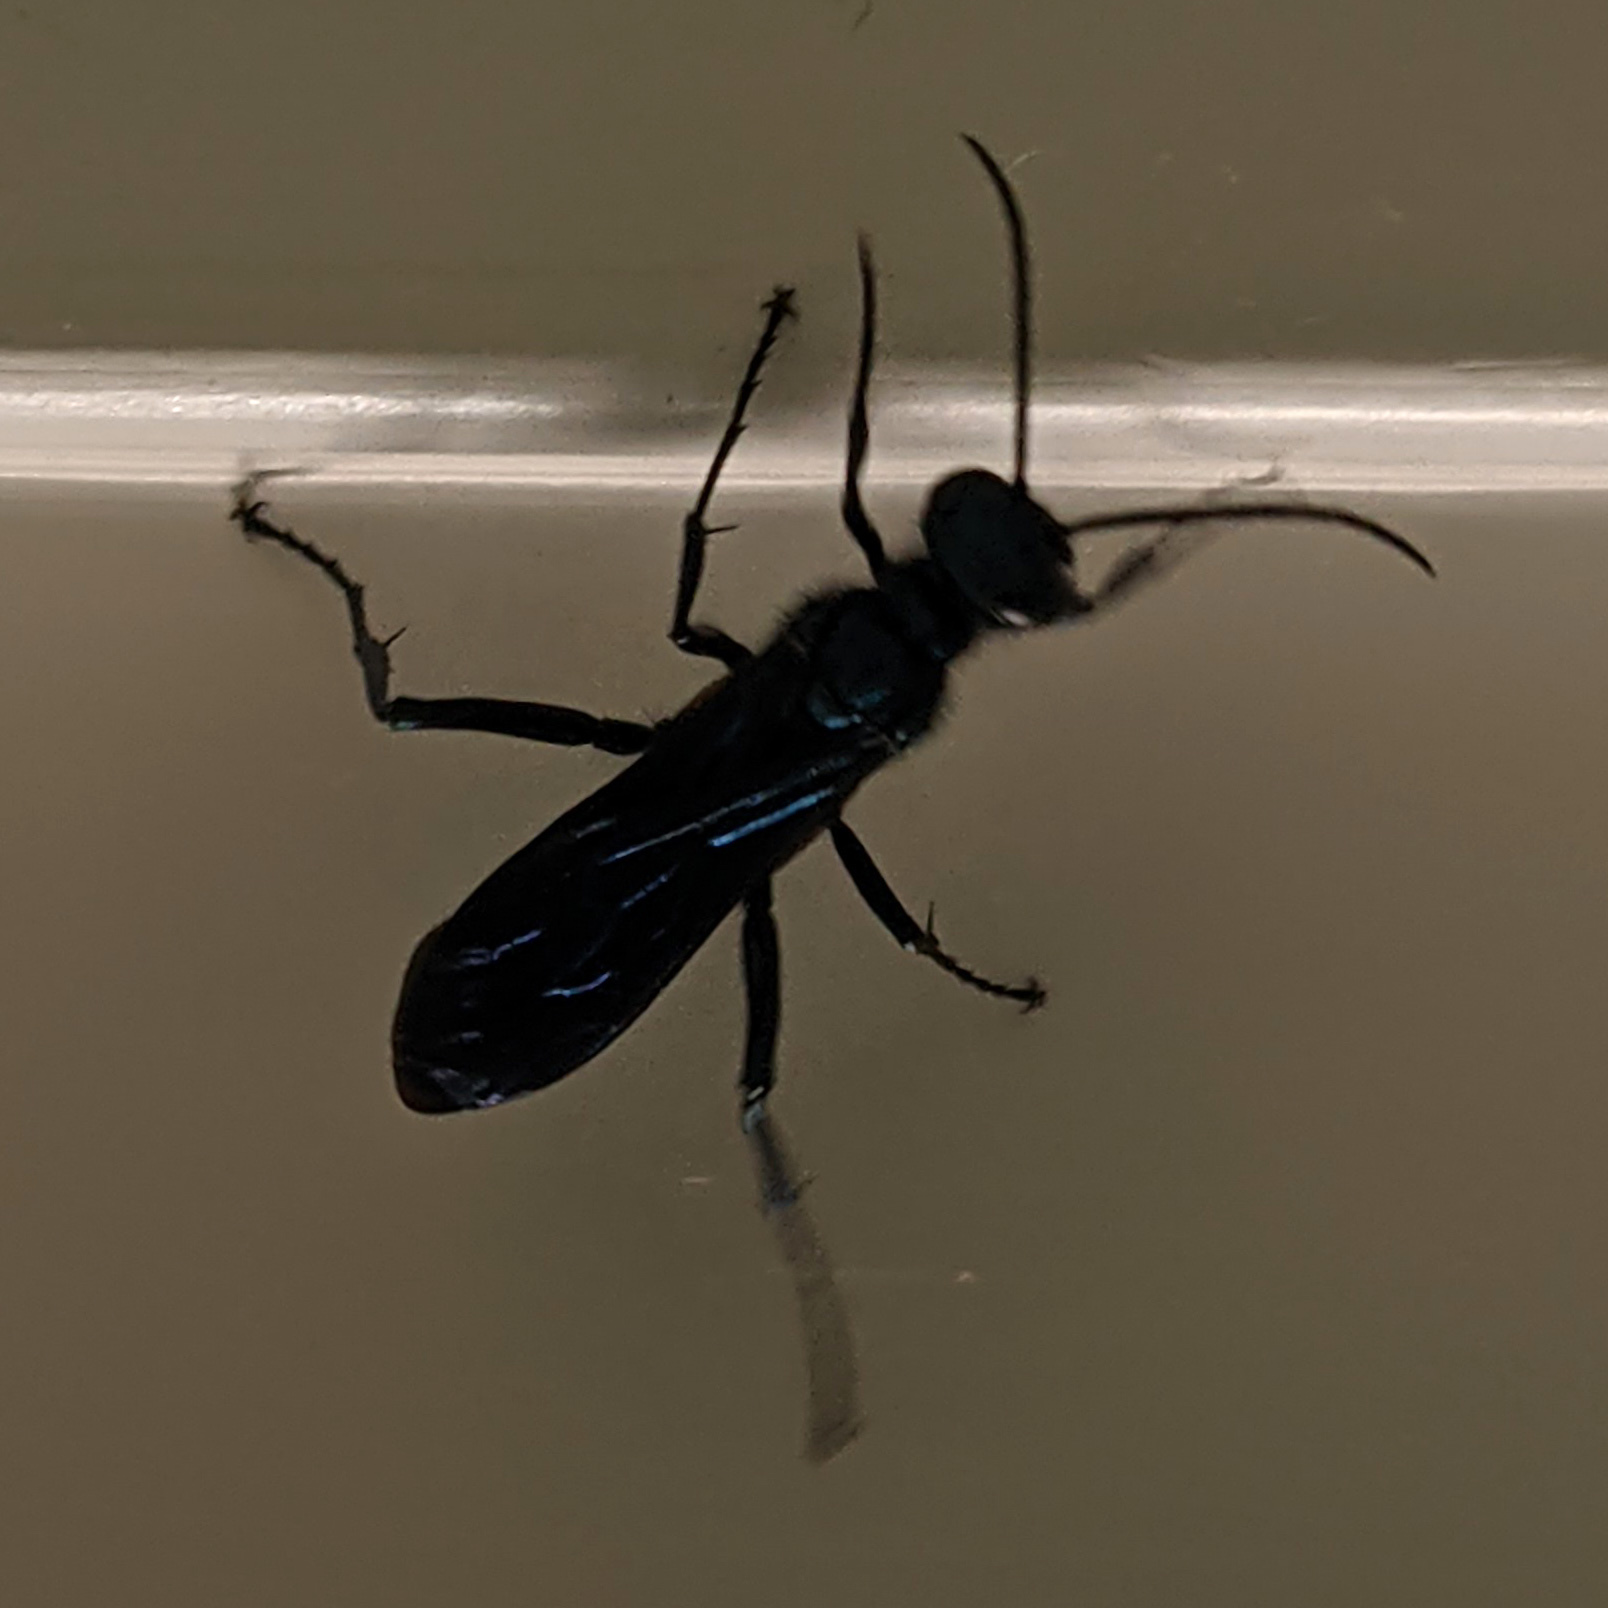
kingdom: Animalia
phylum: Arthropoda
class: Insecta
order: Hymenoptera
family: Sphecidae
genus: Chalybion
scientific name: Chalybion californicum
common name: Mud dauber
